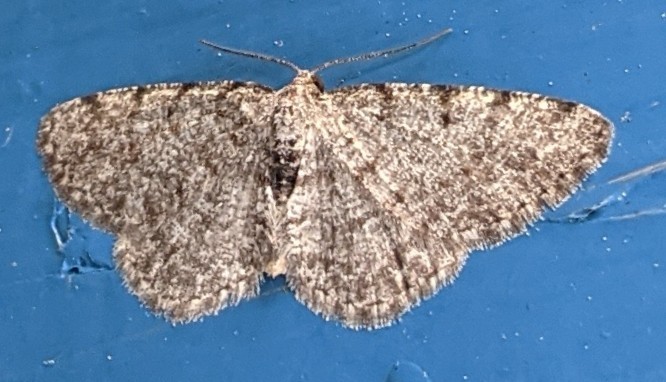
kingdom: Animalia
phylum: Arthropoda
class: Insecta
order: Lepidoptera
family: Geometridae
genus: Aethalura
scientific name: Aethalura intertexta
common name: Four-barred gray
